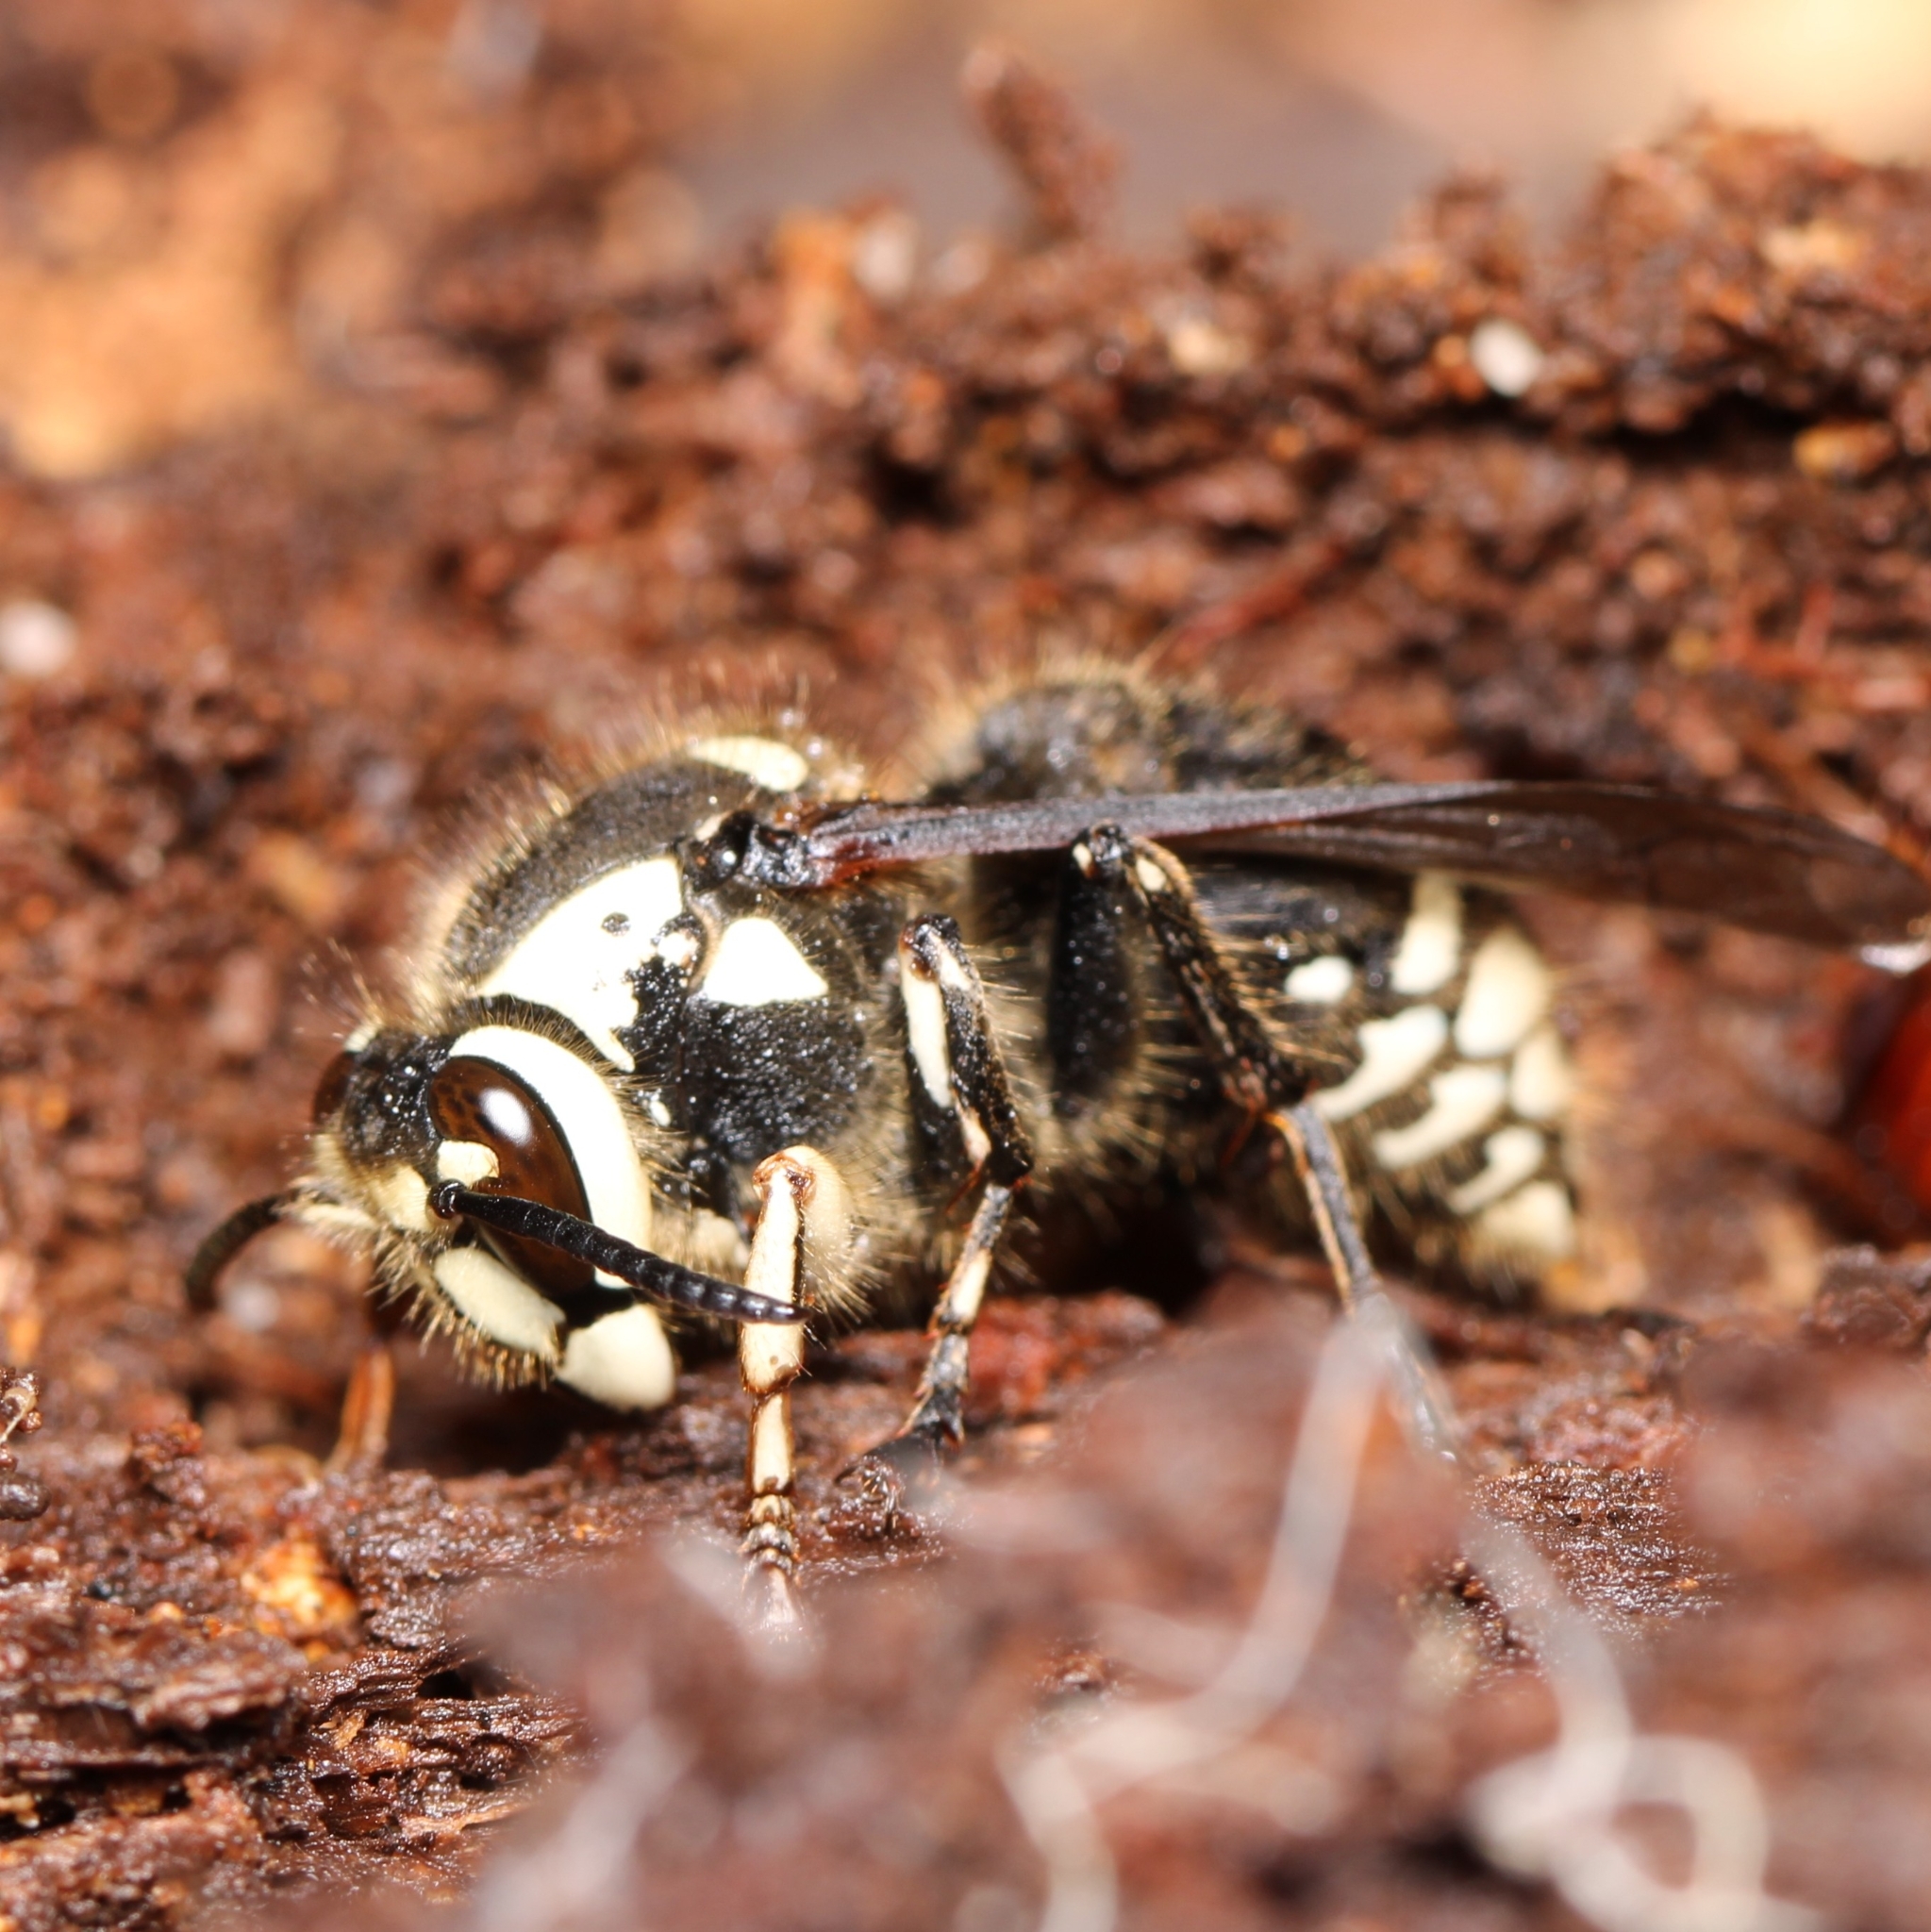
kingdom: Animalia
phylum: Arthropoda
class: Insecta
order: Hymenoptera
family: Vespidae
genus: Dolichovespula
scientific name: Dolichovespula maculata
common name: Bald-faced hornet
